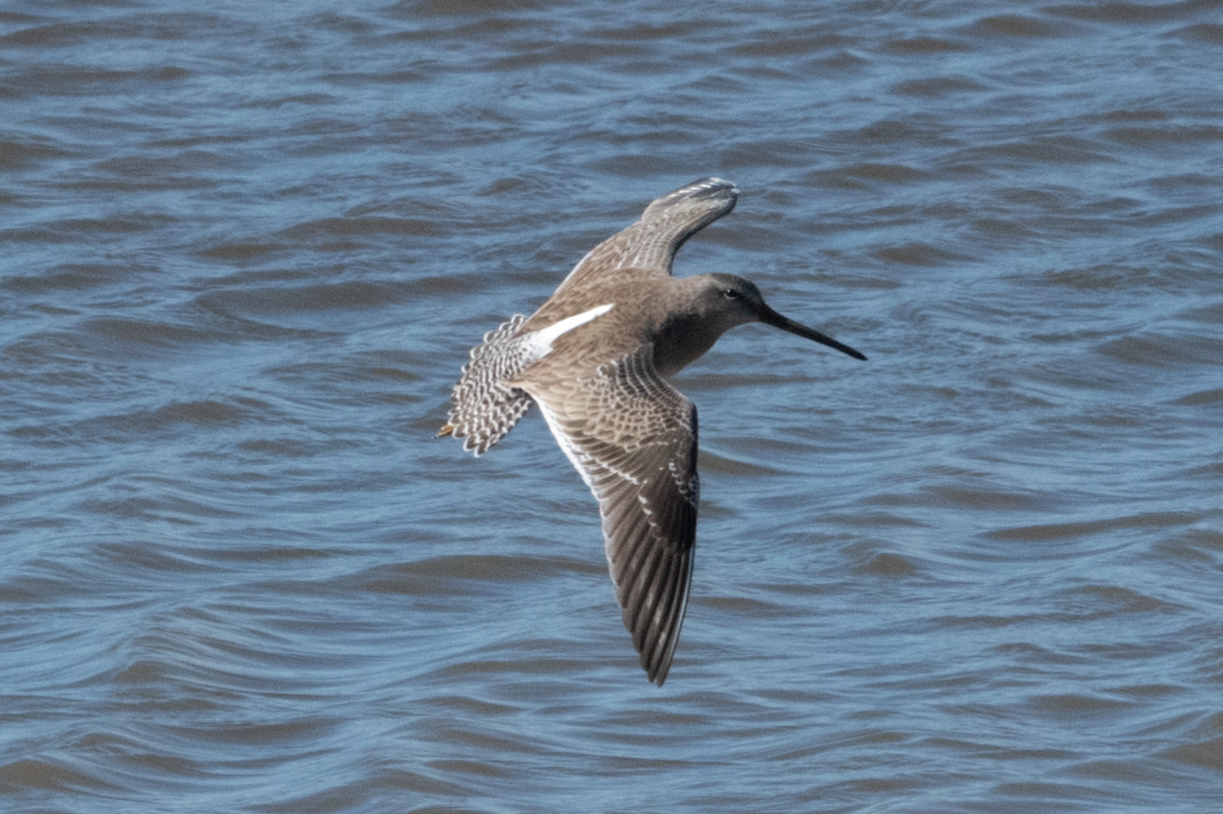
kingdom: Animalia
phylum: Chordata
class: Aves
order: Charadriiformes
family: Scolopacidae
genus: Limnodromus
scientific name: Limnodromus scolopaceus
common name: Long-billed dowitcher
